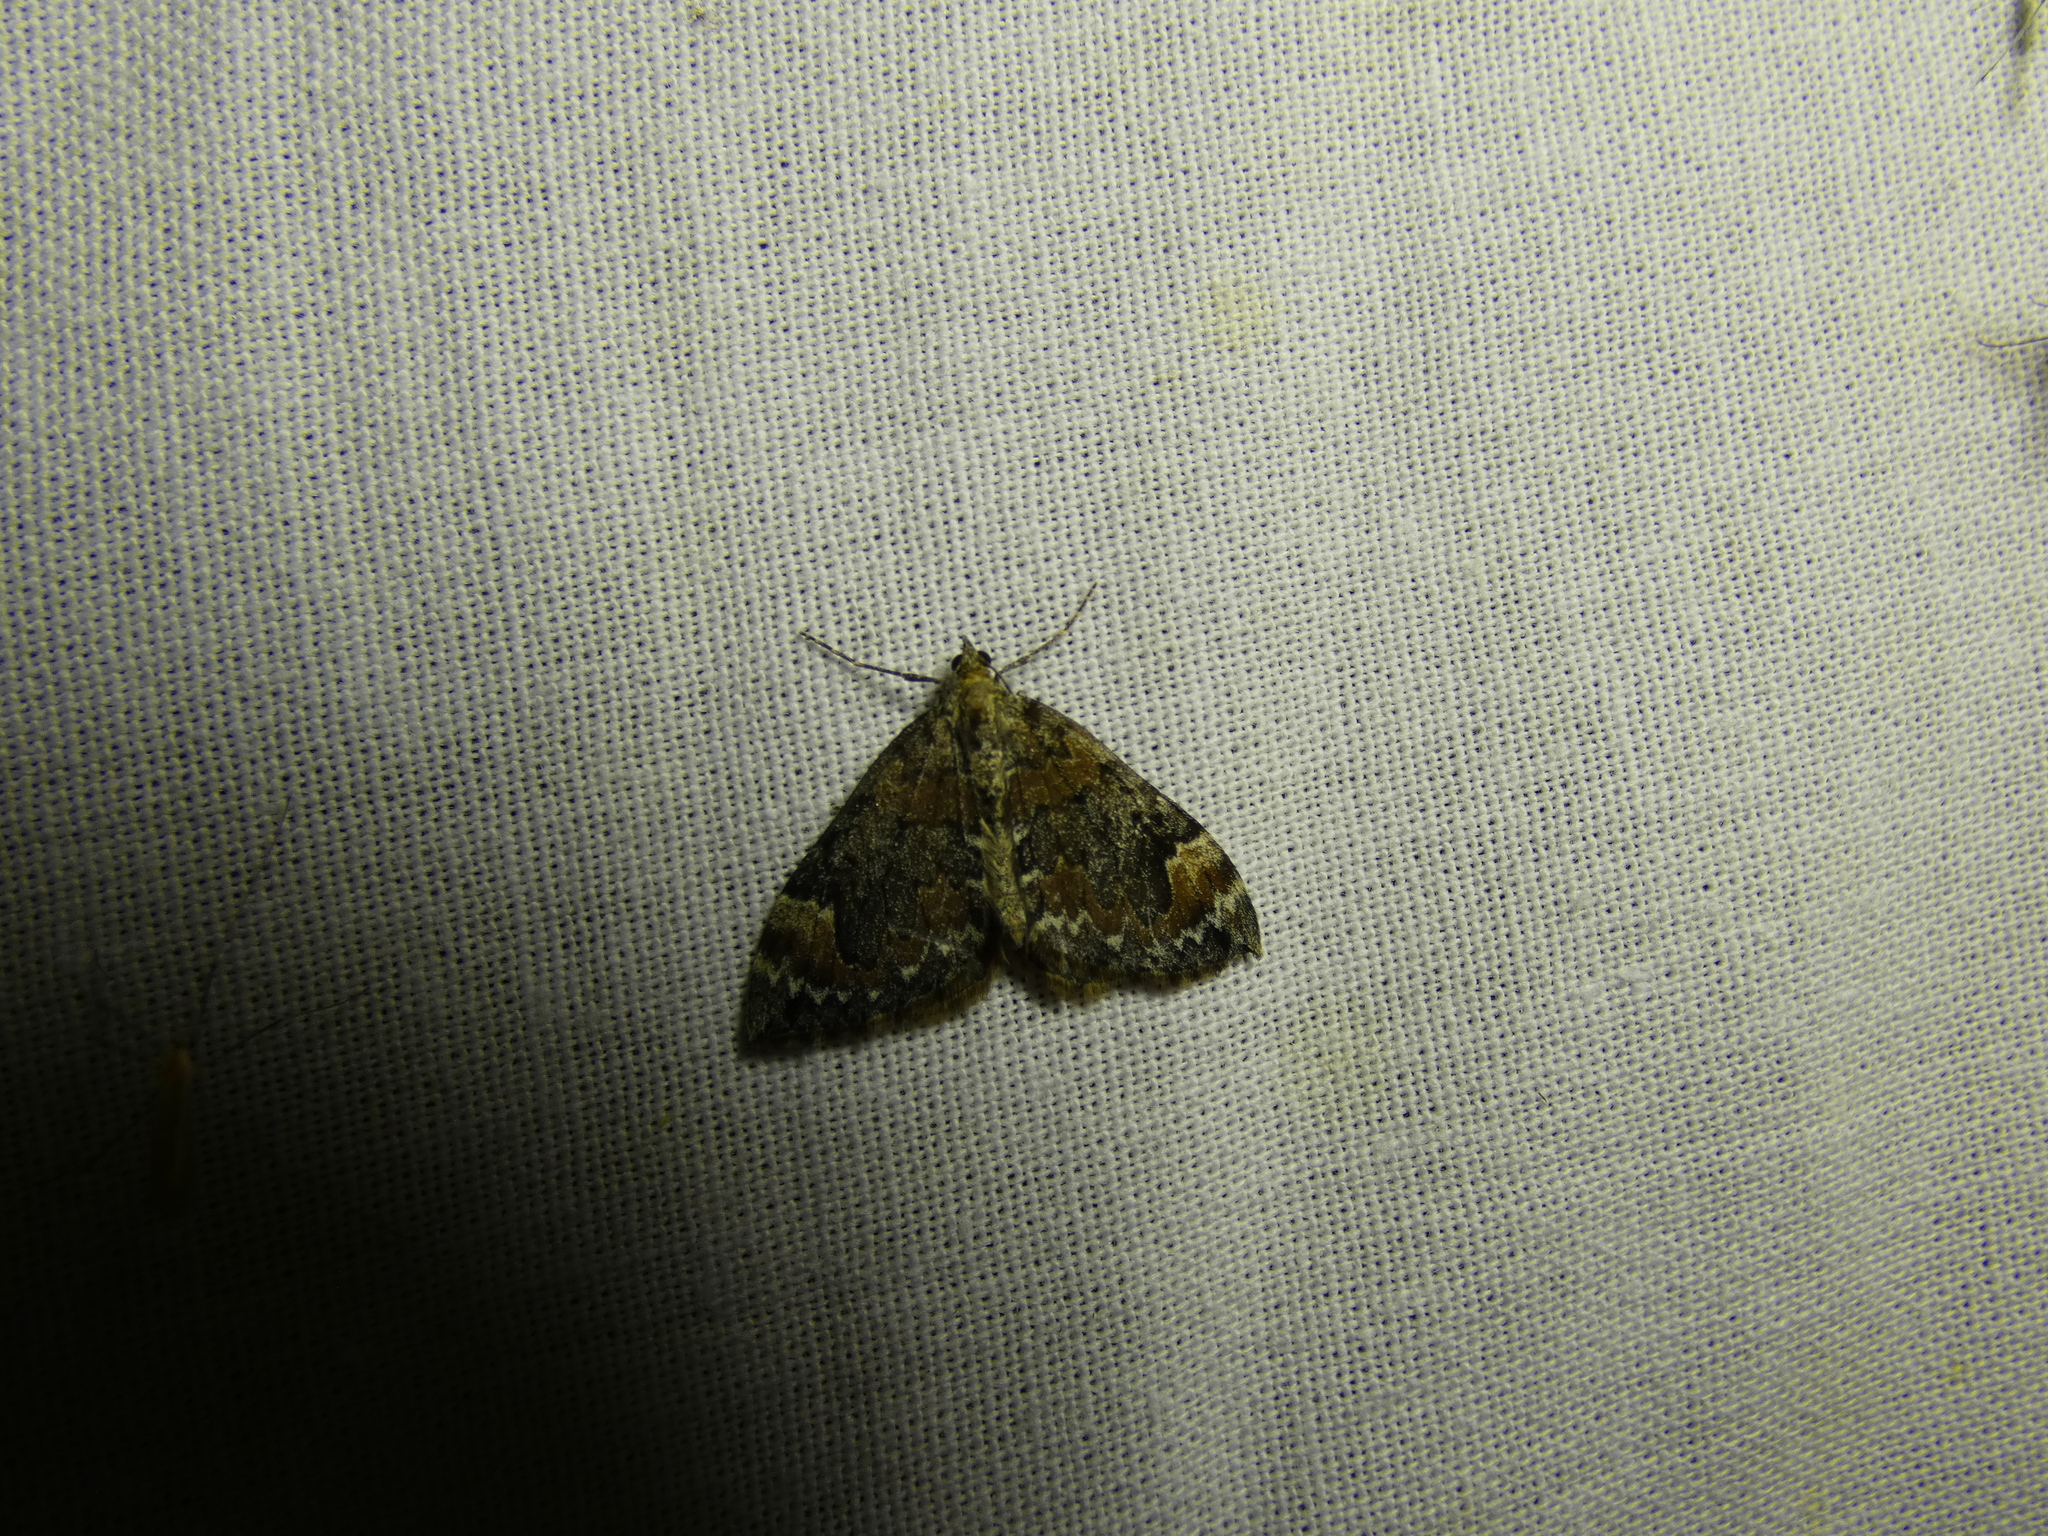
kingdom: Animalia
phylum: Arthropoda
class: Insecta
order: Lepidoptera
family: Geometridae
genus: Dysstroma
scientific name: Dysstroma citrata
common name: Dark marbled carpet
